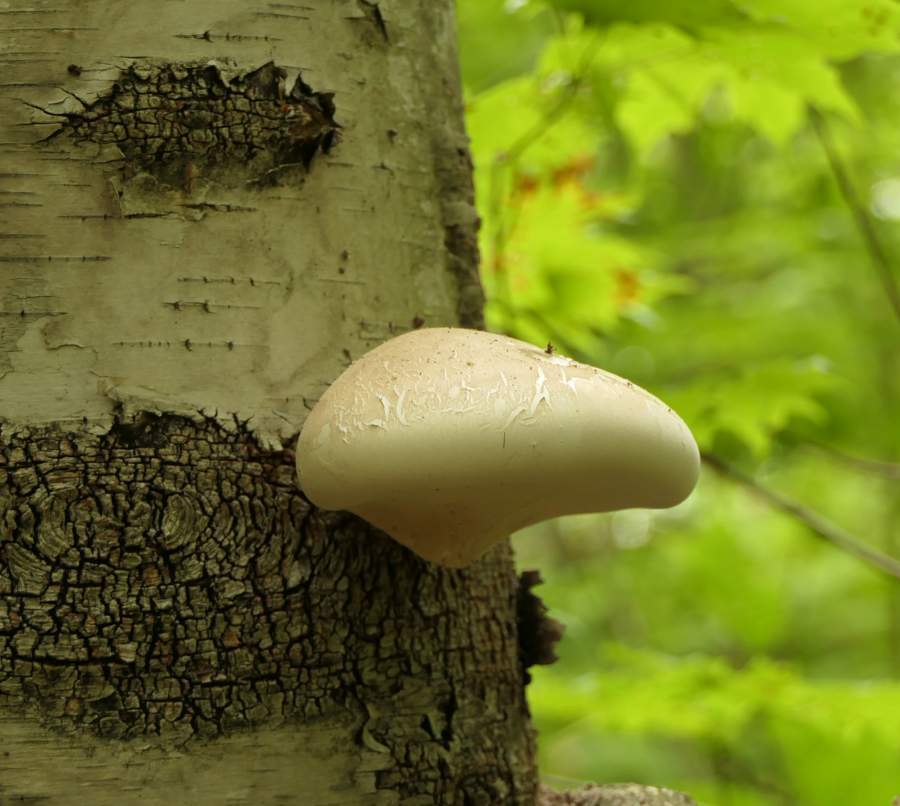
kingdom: Fungi
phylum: Basidiomycota
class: Agaricomycetes
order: Polyporales
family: Fomitopsidaceae
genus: Fomitopsis
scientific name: Fomitopsis betulina
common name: Birch polypore
